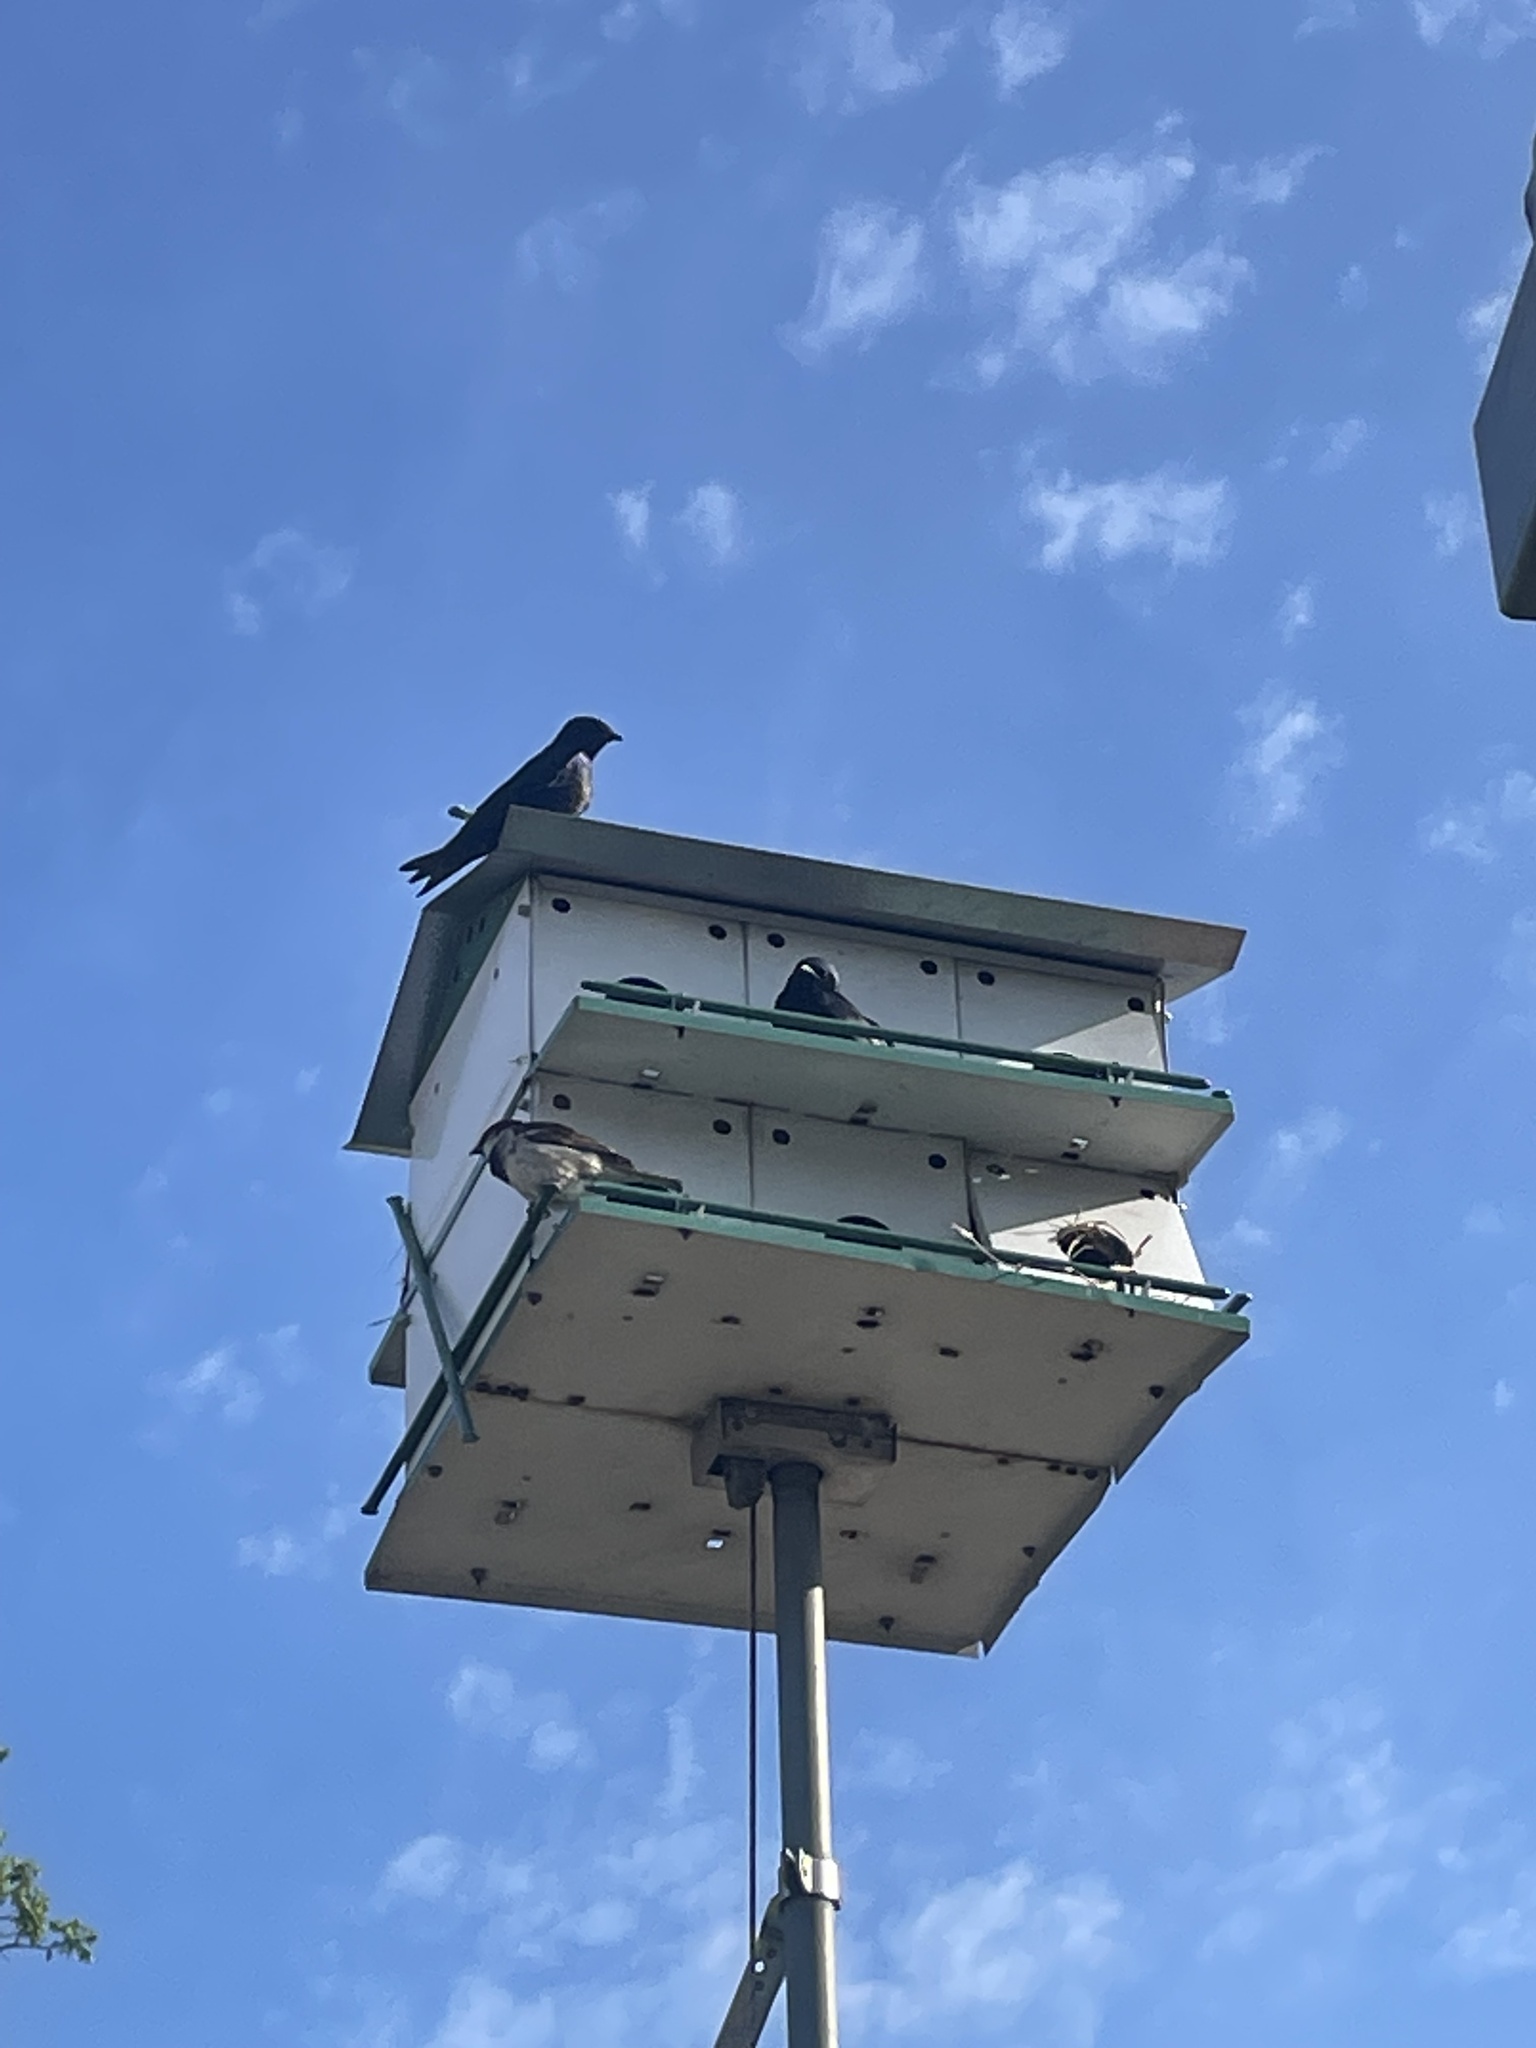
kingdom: Animalia
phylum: Chordata
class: Aves
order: Passeriformes
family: Passeridae
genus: Passer
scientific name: Passer domesticus
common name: House sparrow
